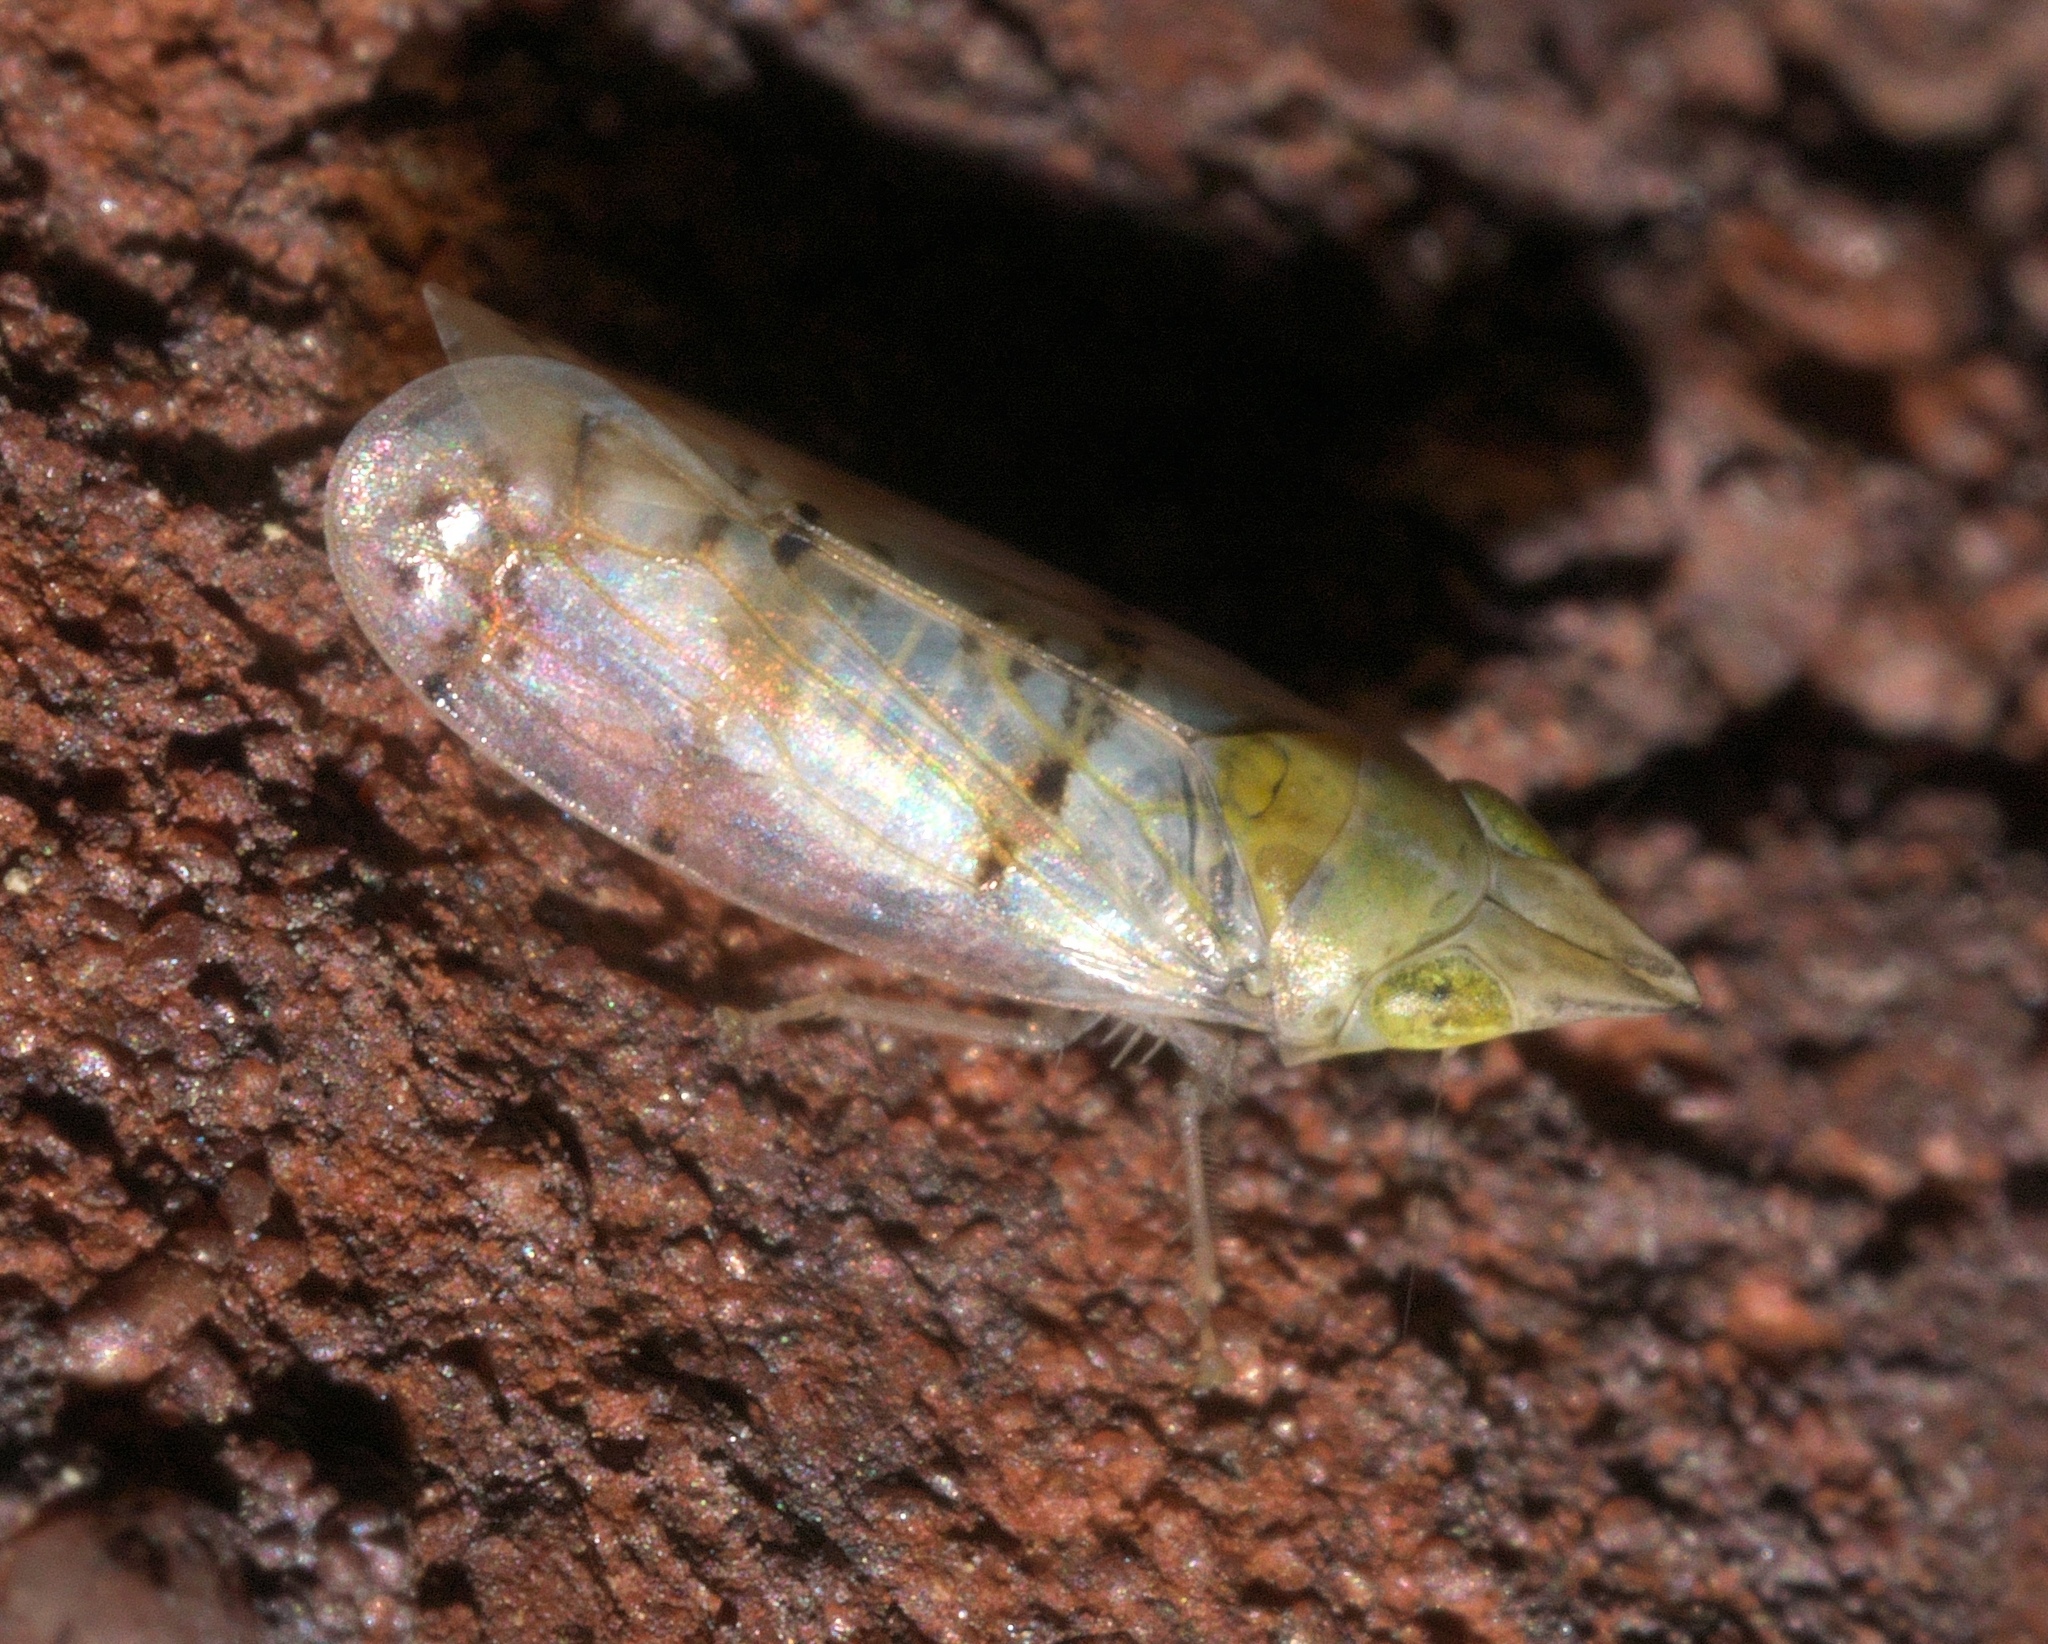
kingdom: Animalia
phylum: Arthropoda
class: Insecta
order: Hemiptera
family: Cicadellidae
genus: Japananus
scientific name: Japananus hyalinus
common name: The japanese maple leafhopper
